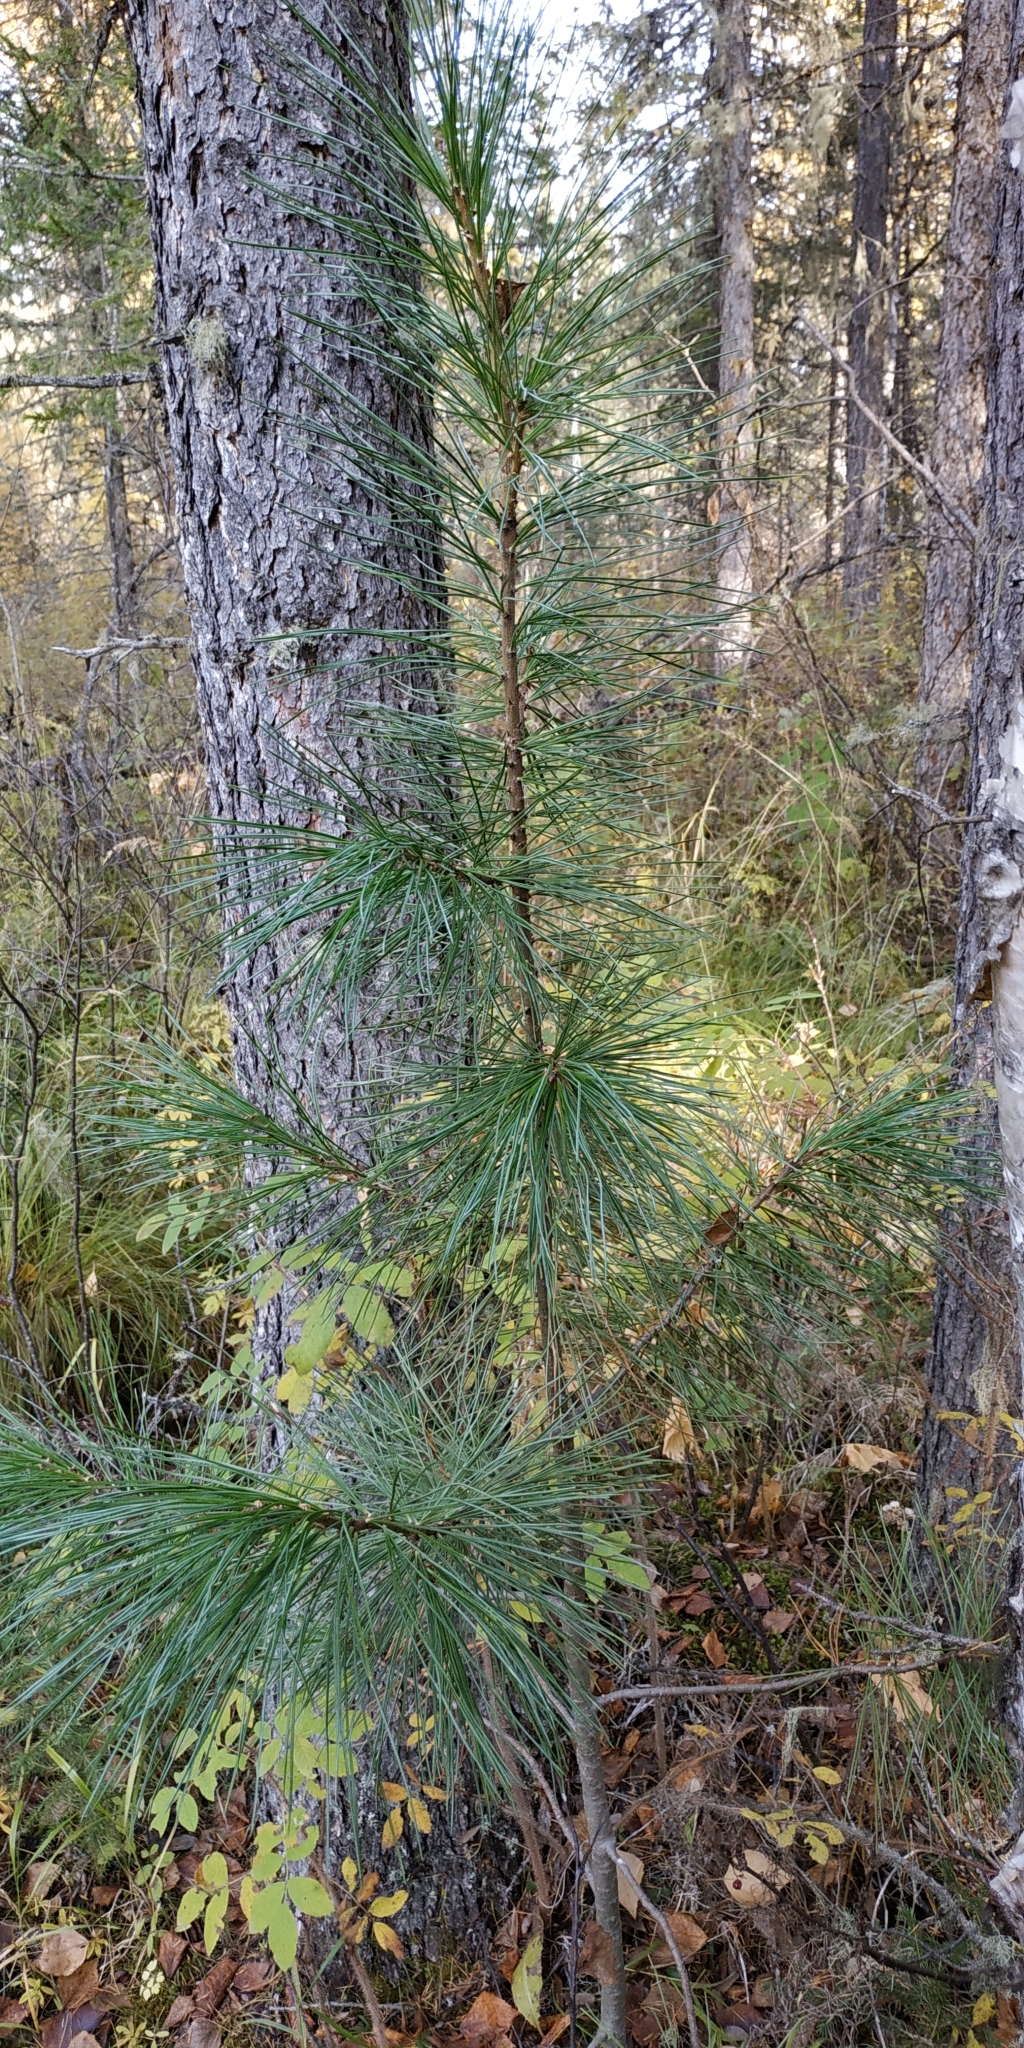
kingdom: Plantae
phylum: Tracheophyta
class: Pinopsida
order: Pinales
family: Pinaceae
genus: Pinus
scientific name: Pinus sibirica
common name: Siberian pine
